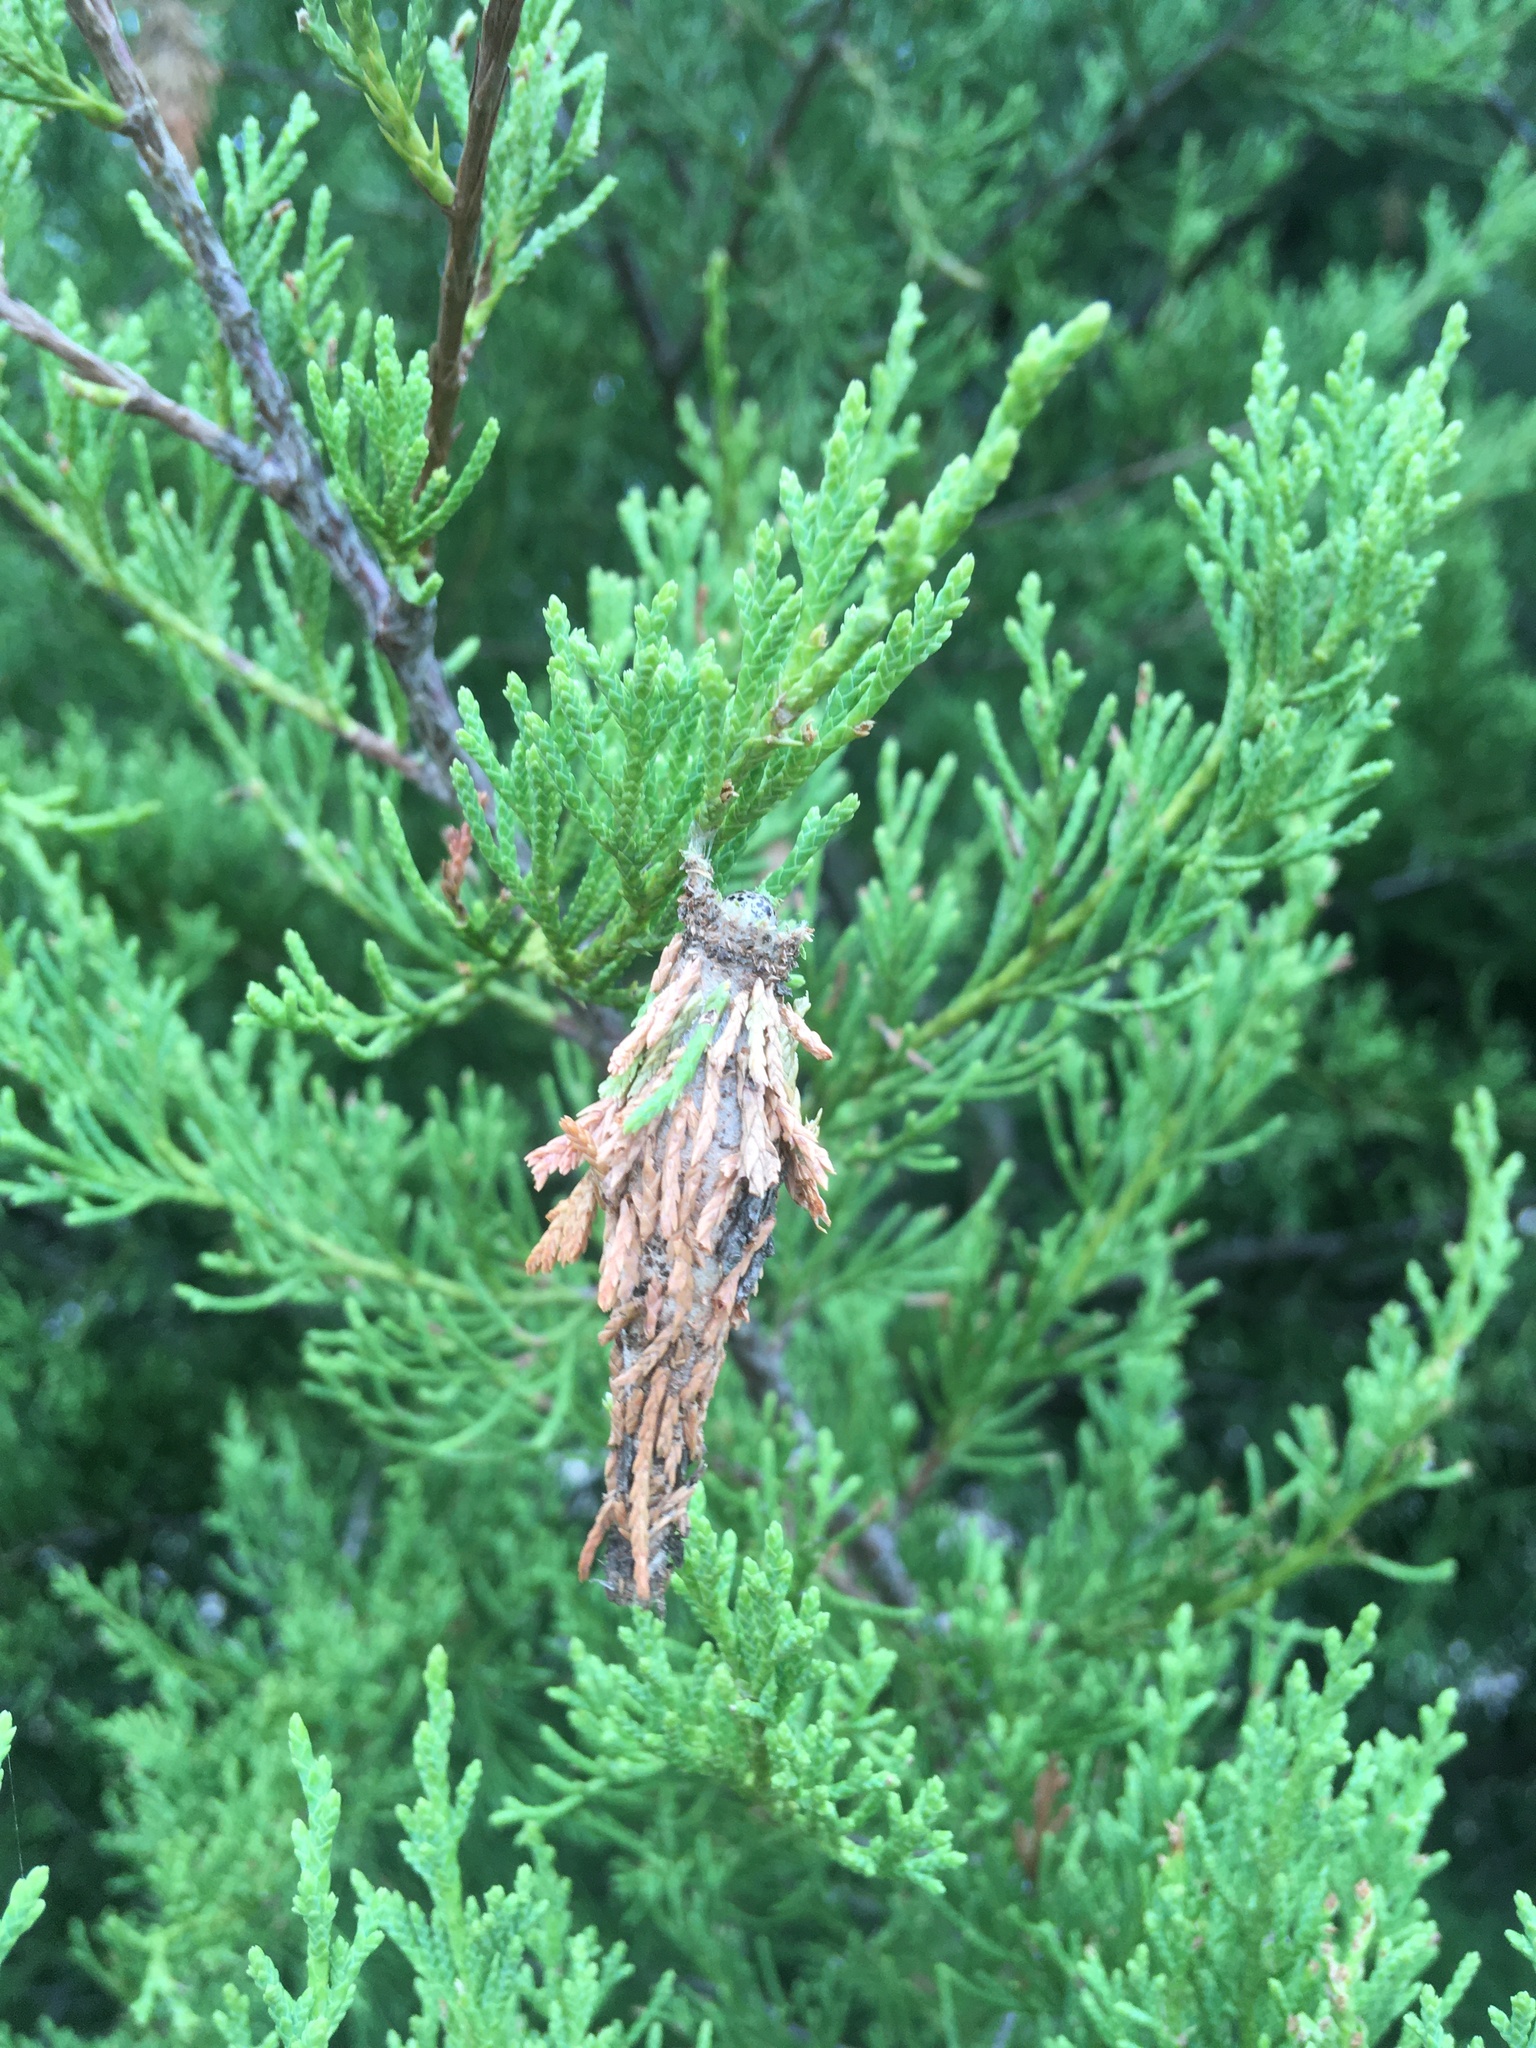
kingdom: Animalia
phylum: Arthropoda
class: Insecta
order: Lepidoptera
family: Psychidae
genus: Thyridopteryx
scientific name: Thyridopteryx ephemeraeformis
